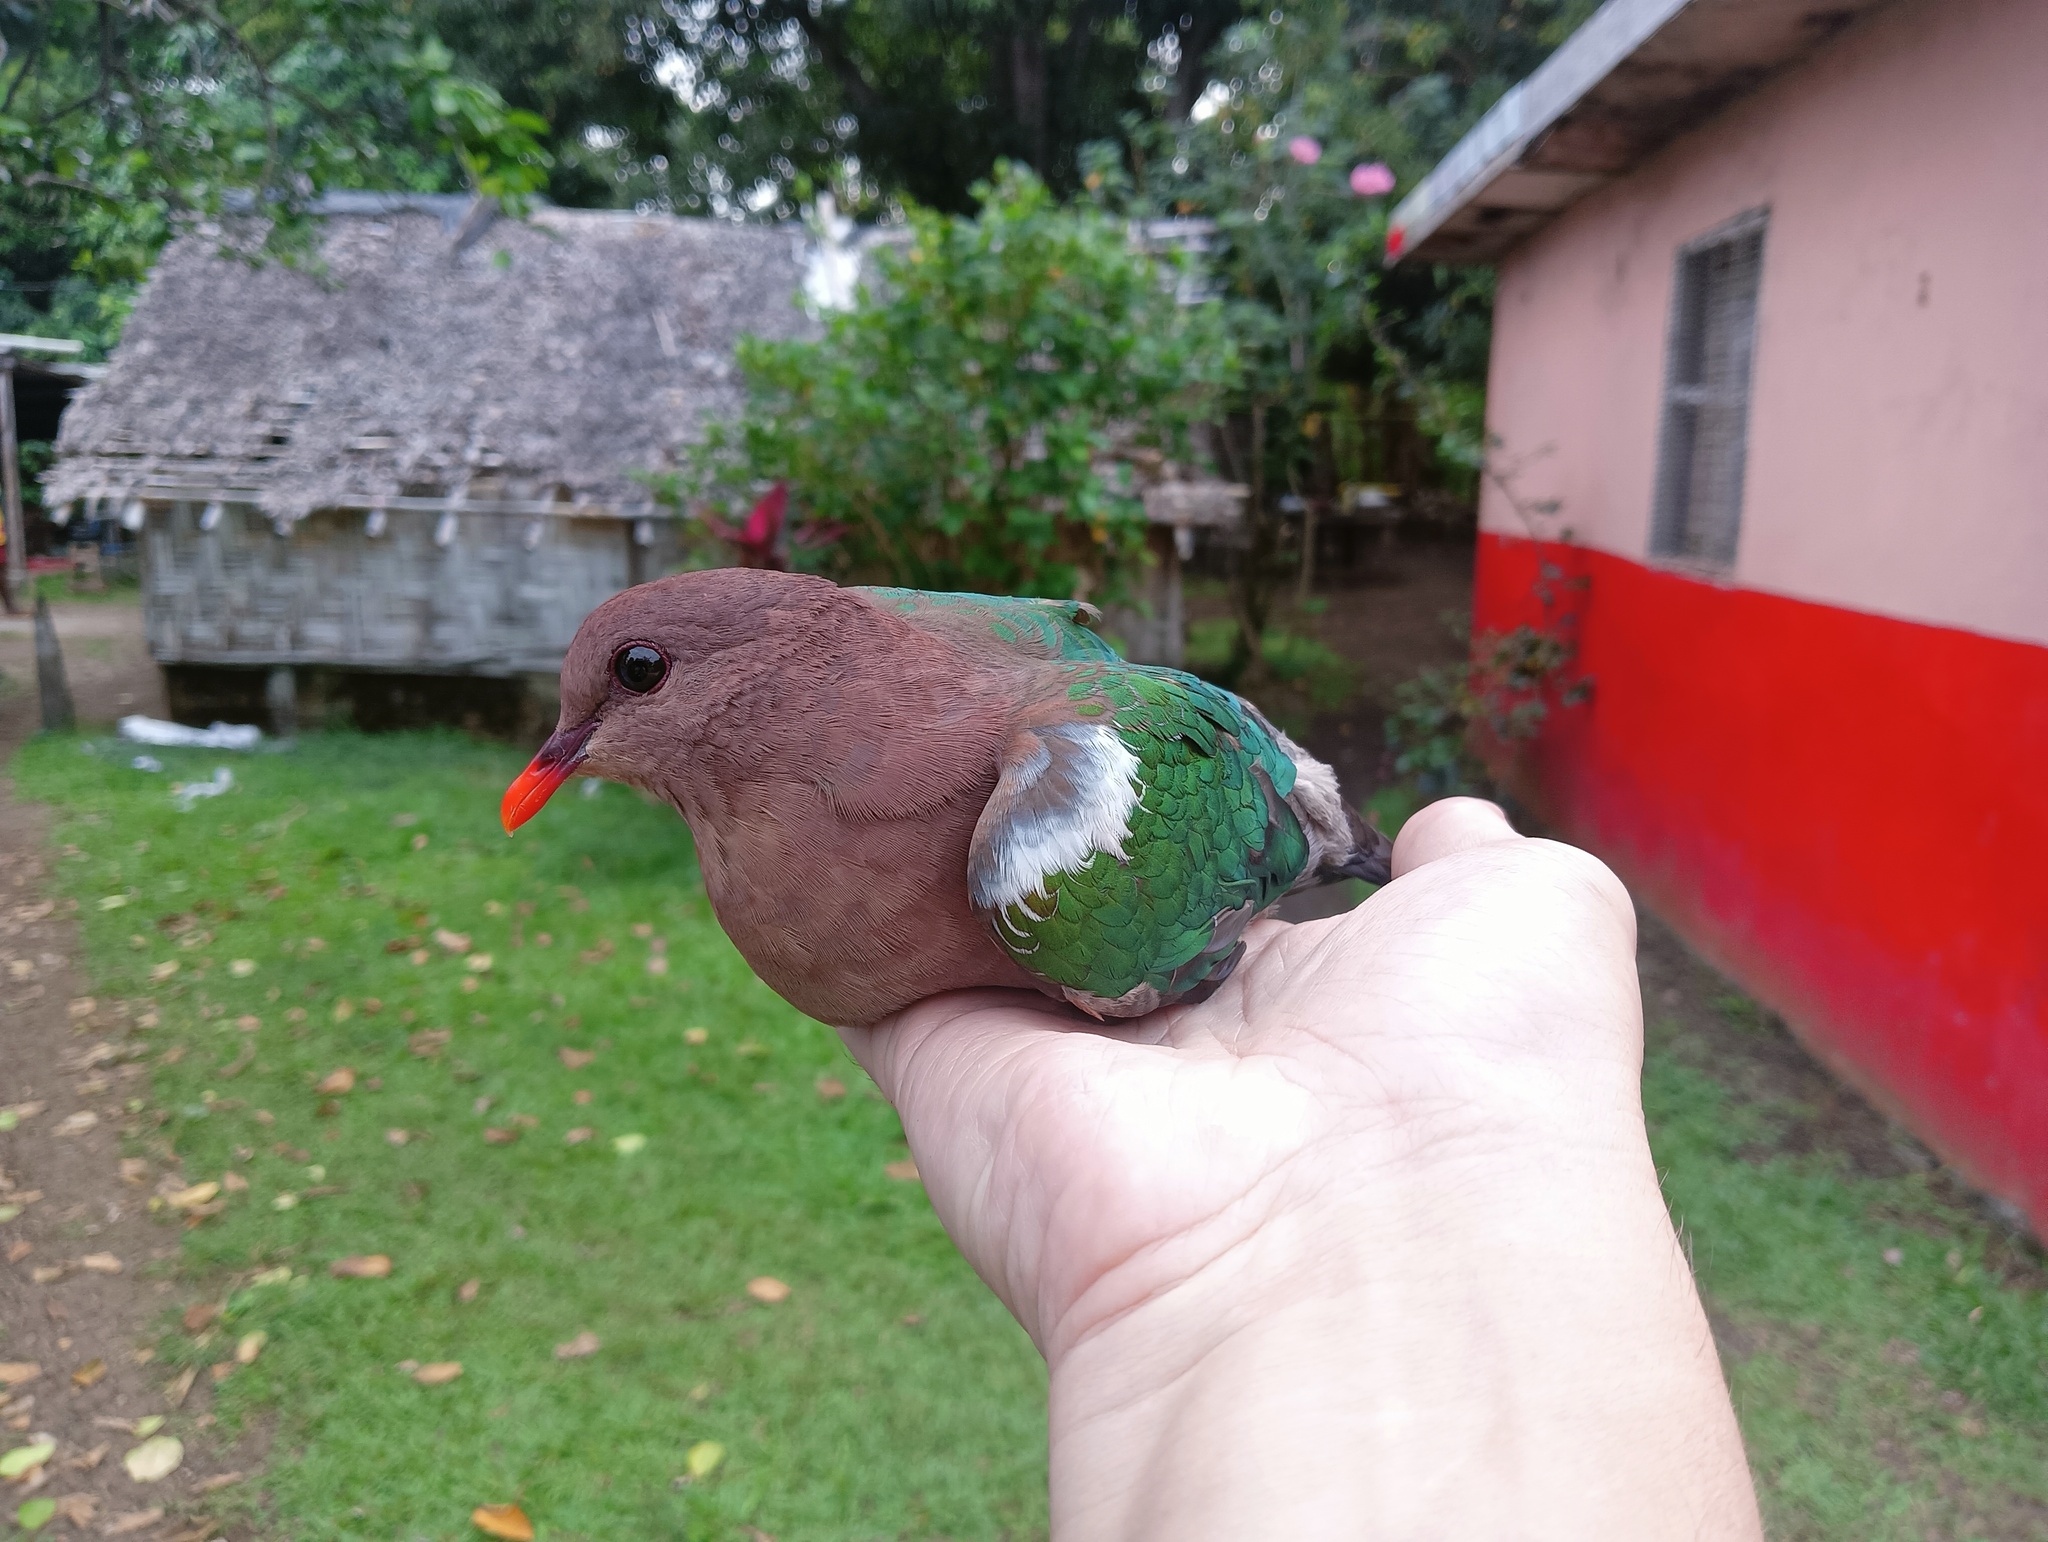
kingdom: Animalia
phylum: Chordata
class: Aves
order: Columbiformes
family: Columbidae
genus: Chalcophaps
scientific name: Chalcophaps longirostris
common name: Pacific emerald dove
